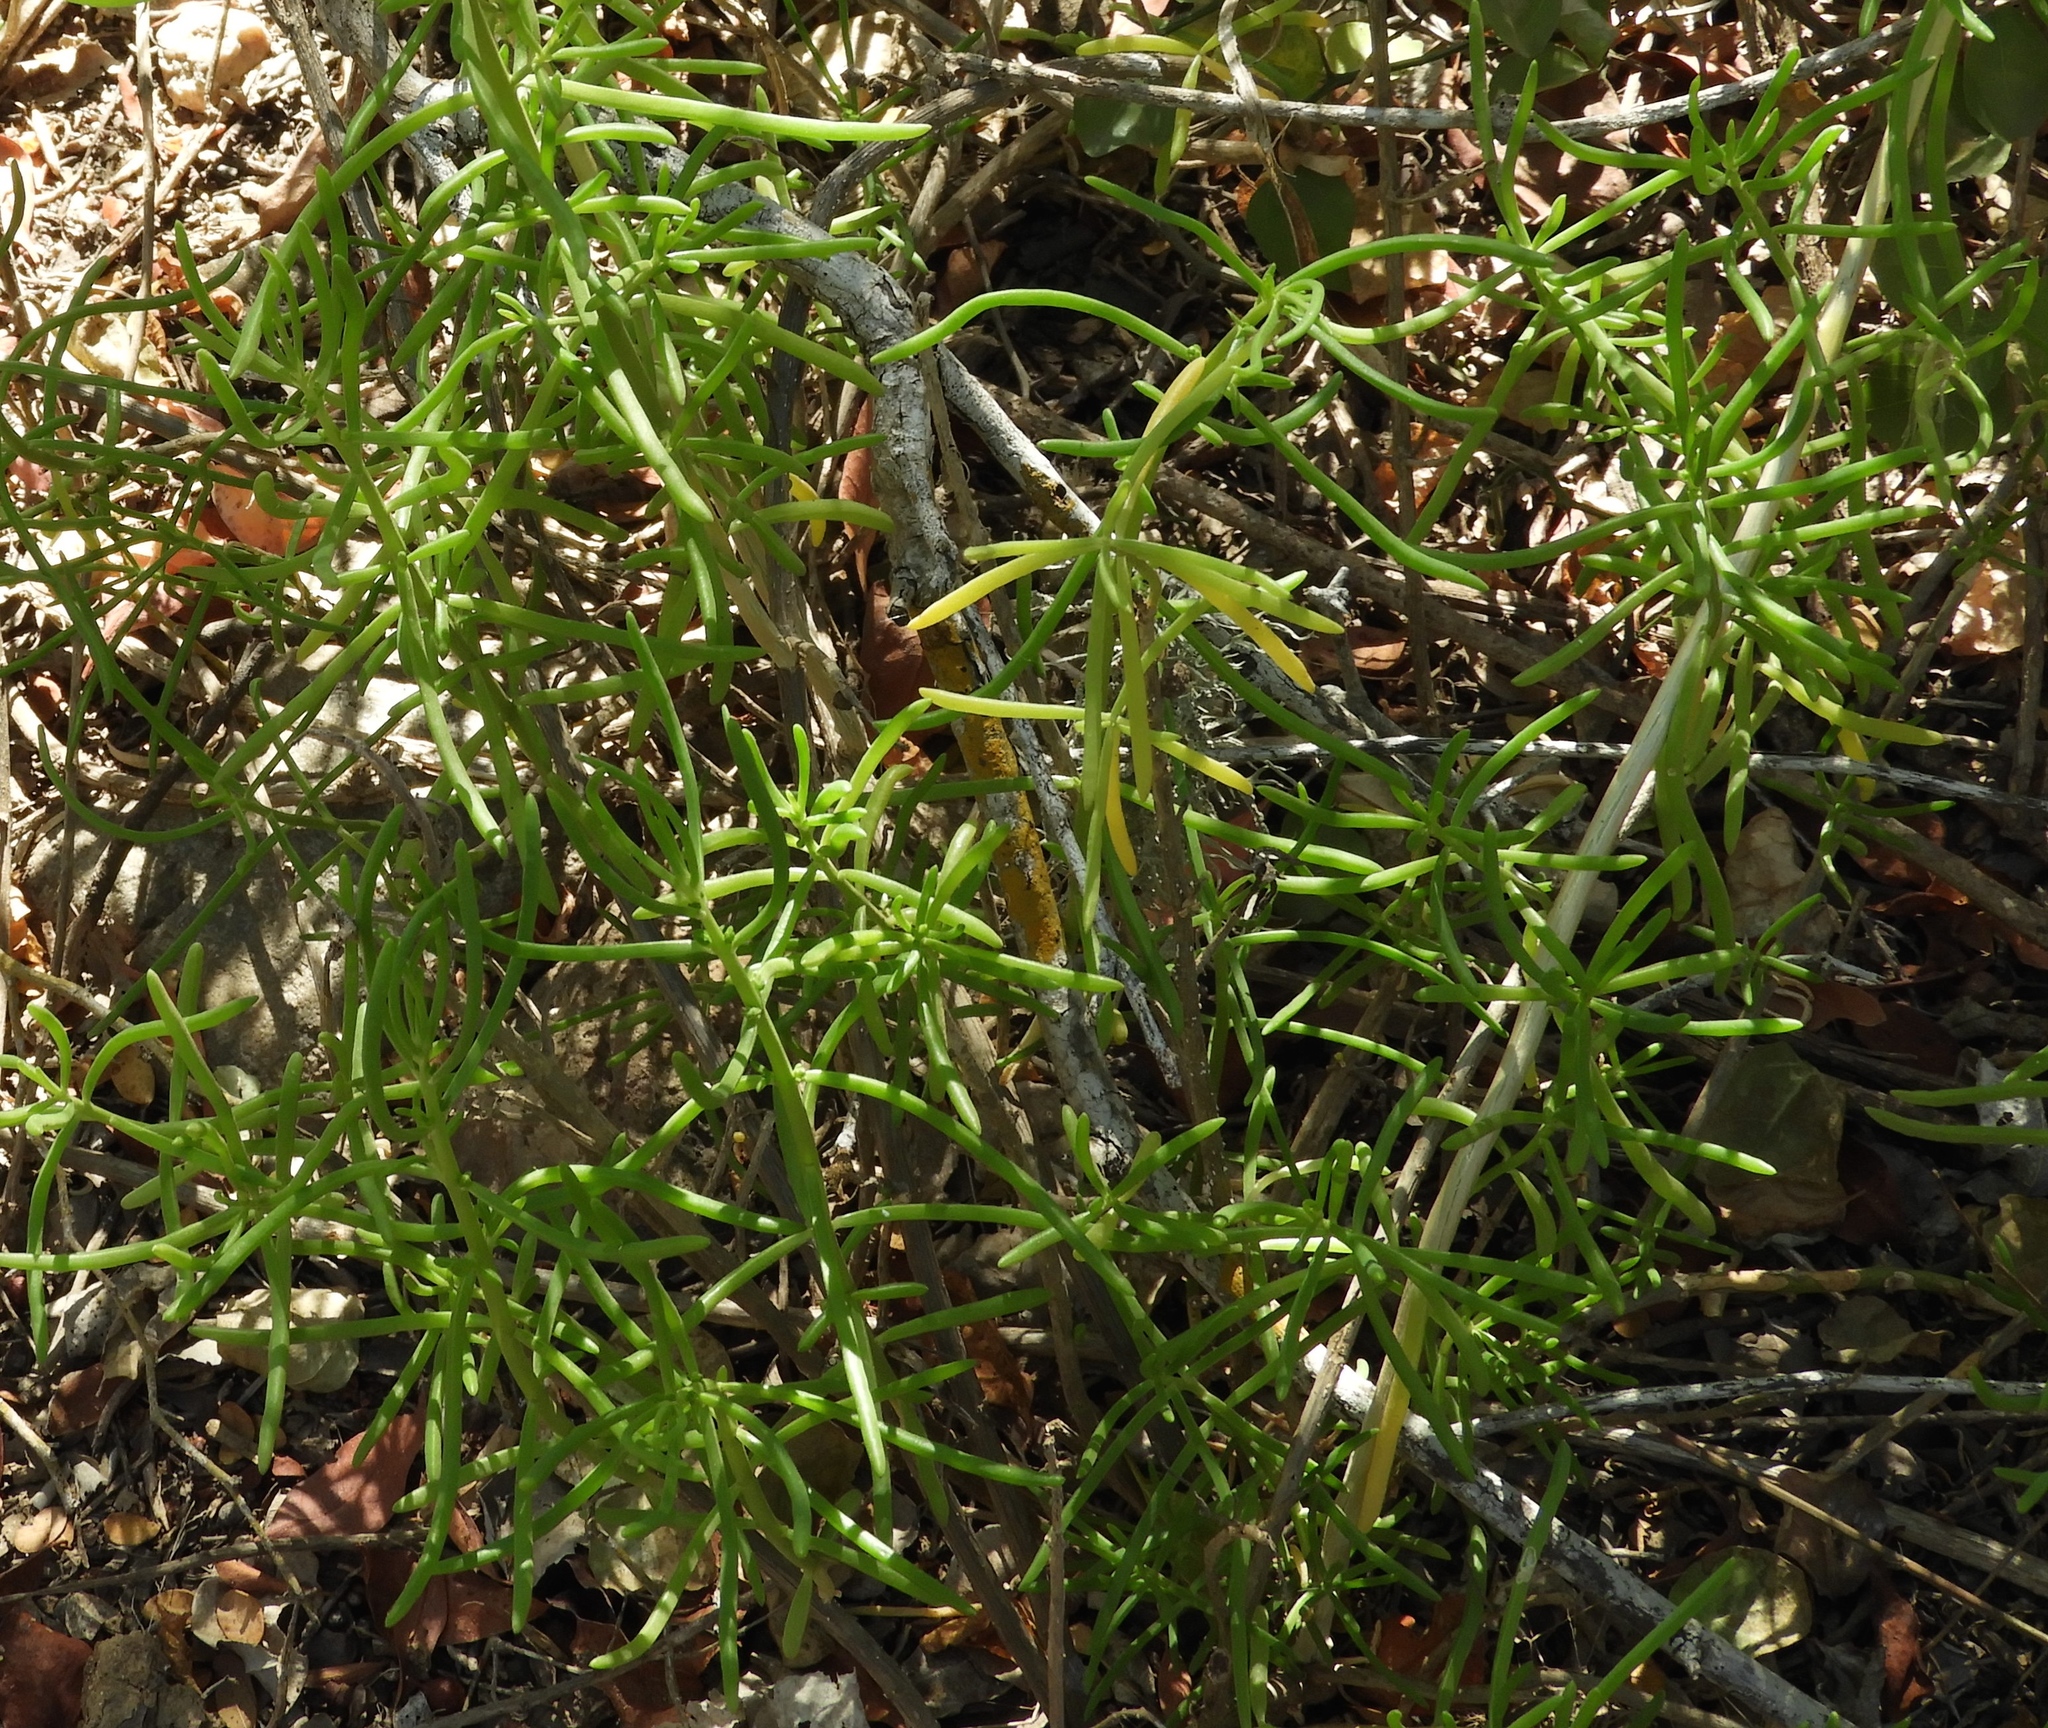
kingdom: Plantae
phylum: Tracheophyta
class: Magnoliopsida
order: Brassicales
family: Bataceae
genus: Batis
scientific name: Batis maritima
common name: Turtleweed
